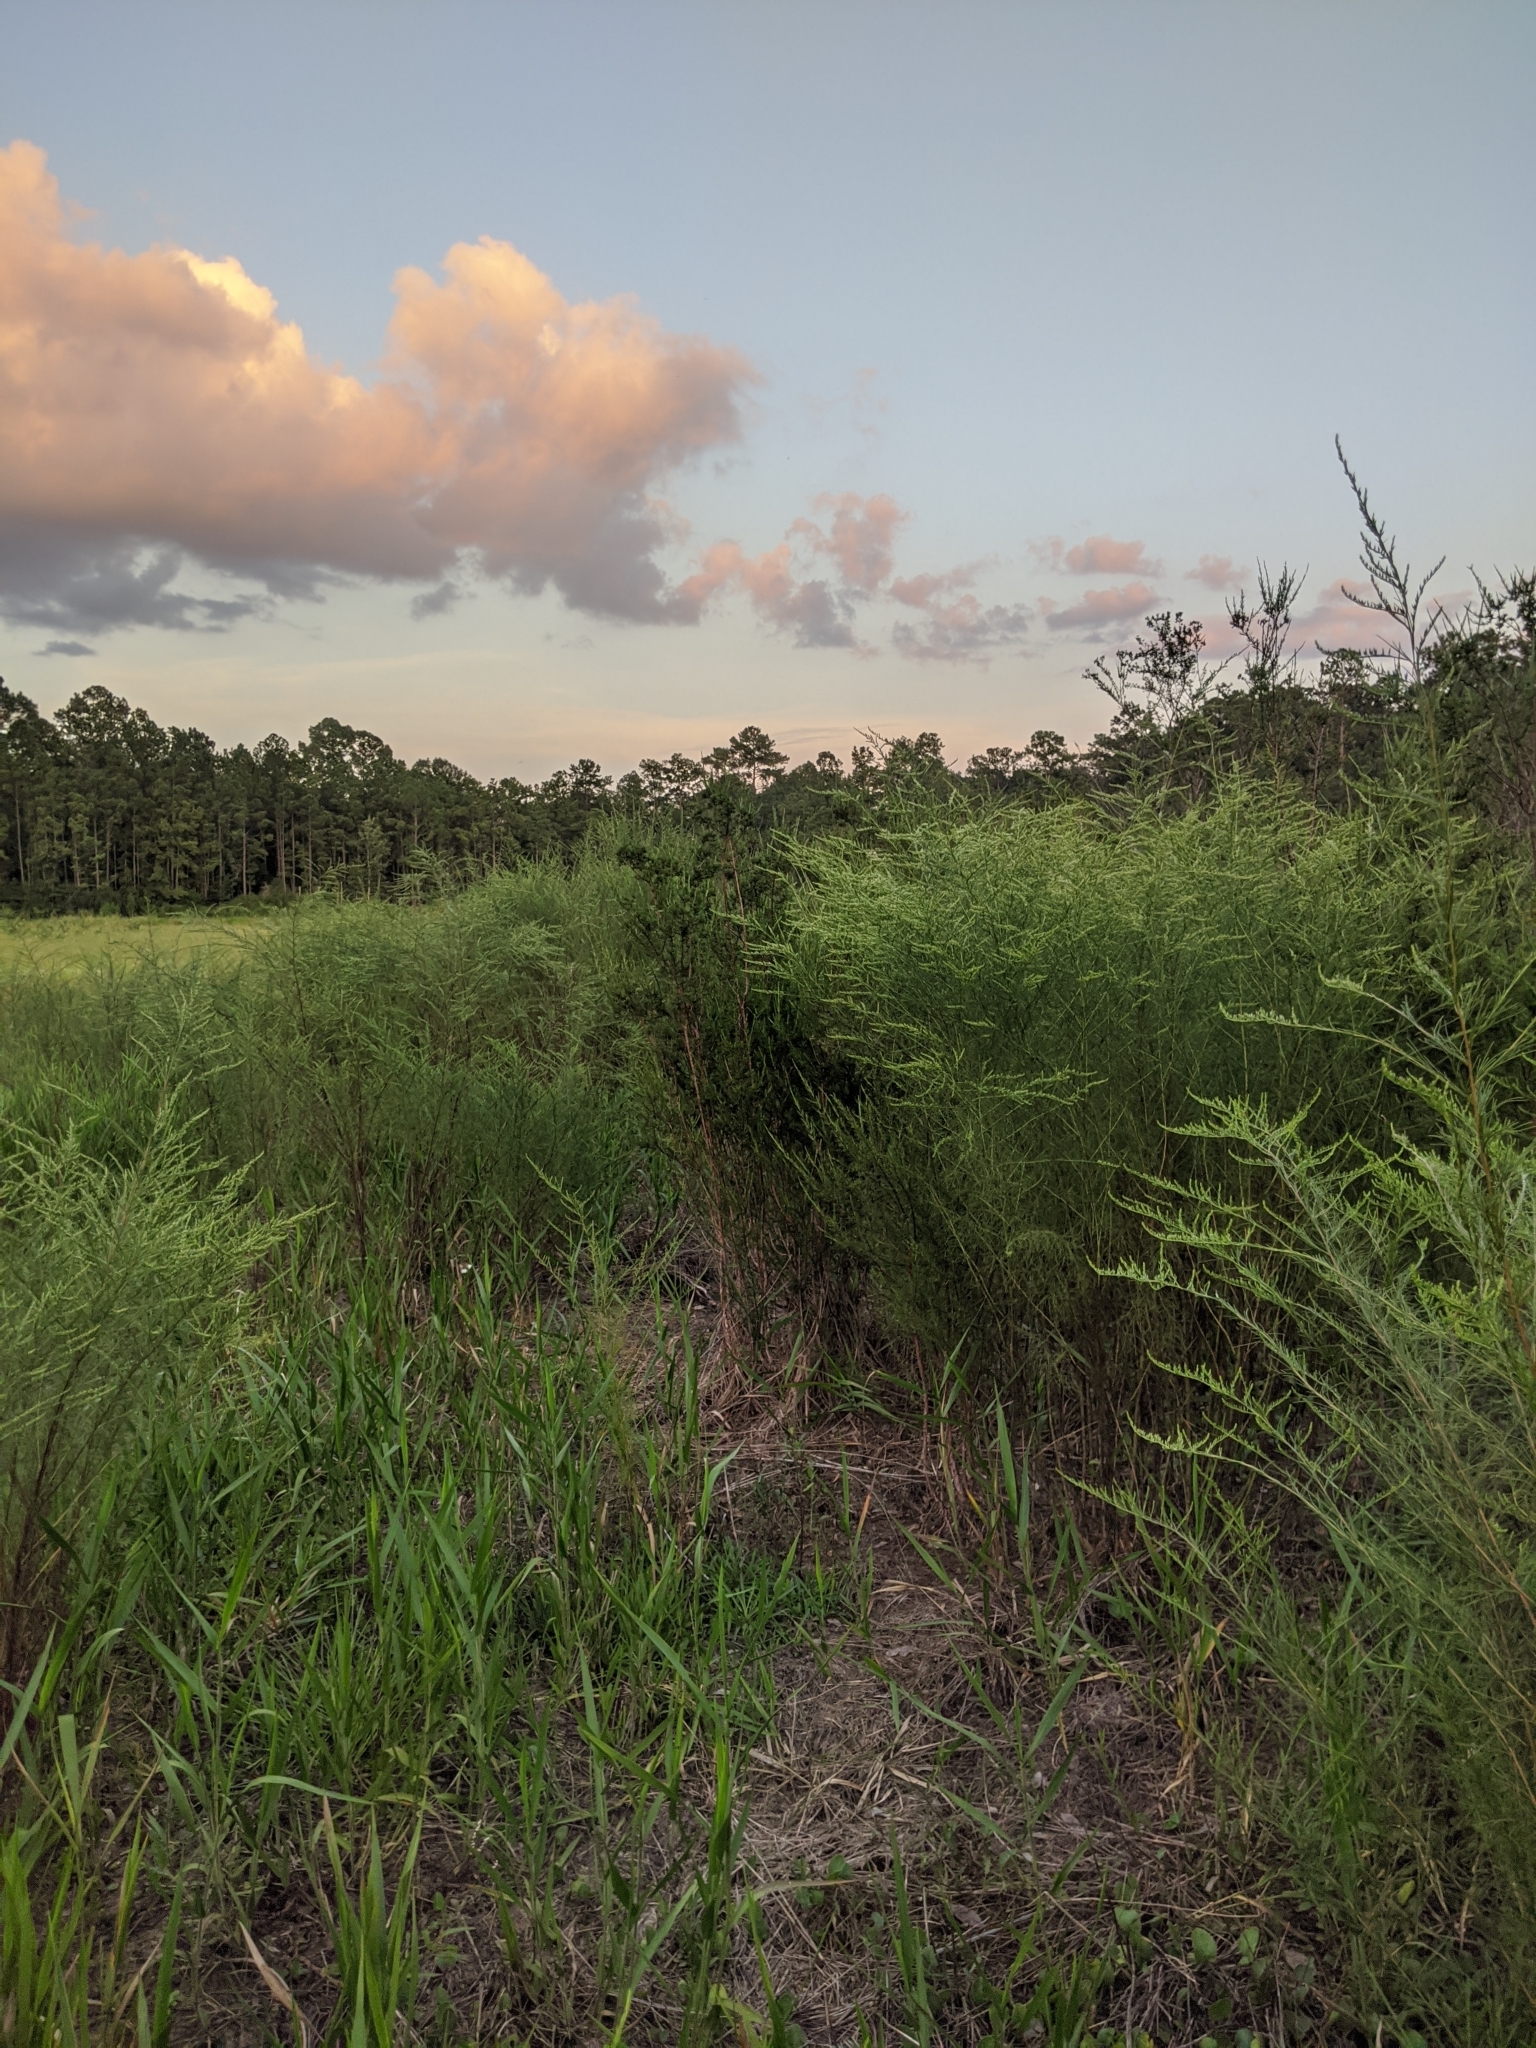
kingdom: Plantae
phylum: Tracheophyta
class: Magnoliopsida
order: Asterales
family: Asteraceae
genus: Eupatorium
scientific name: Eupatorium leptophyllum
